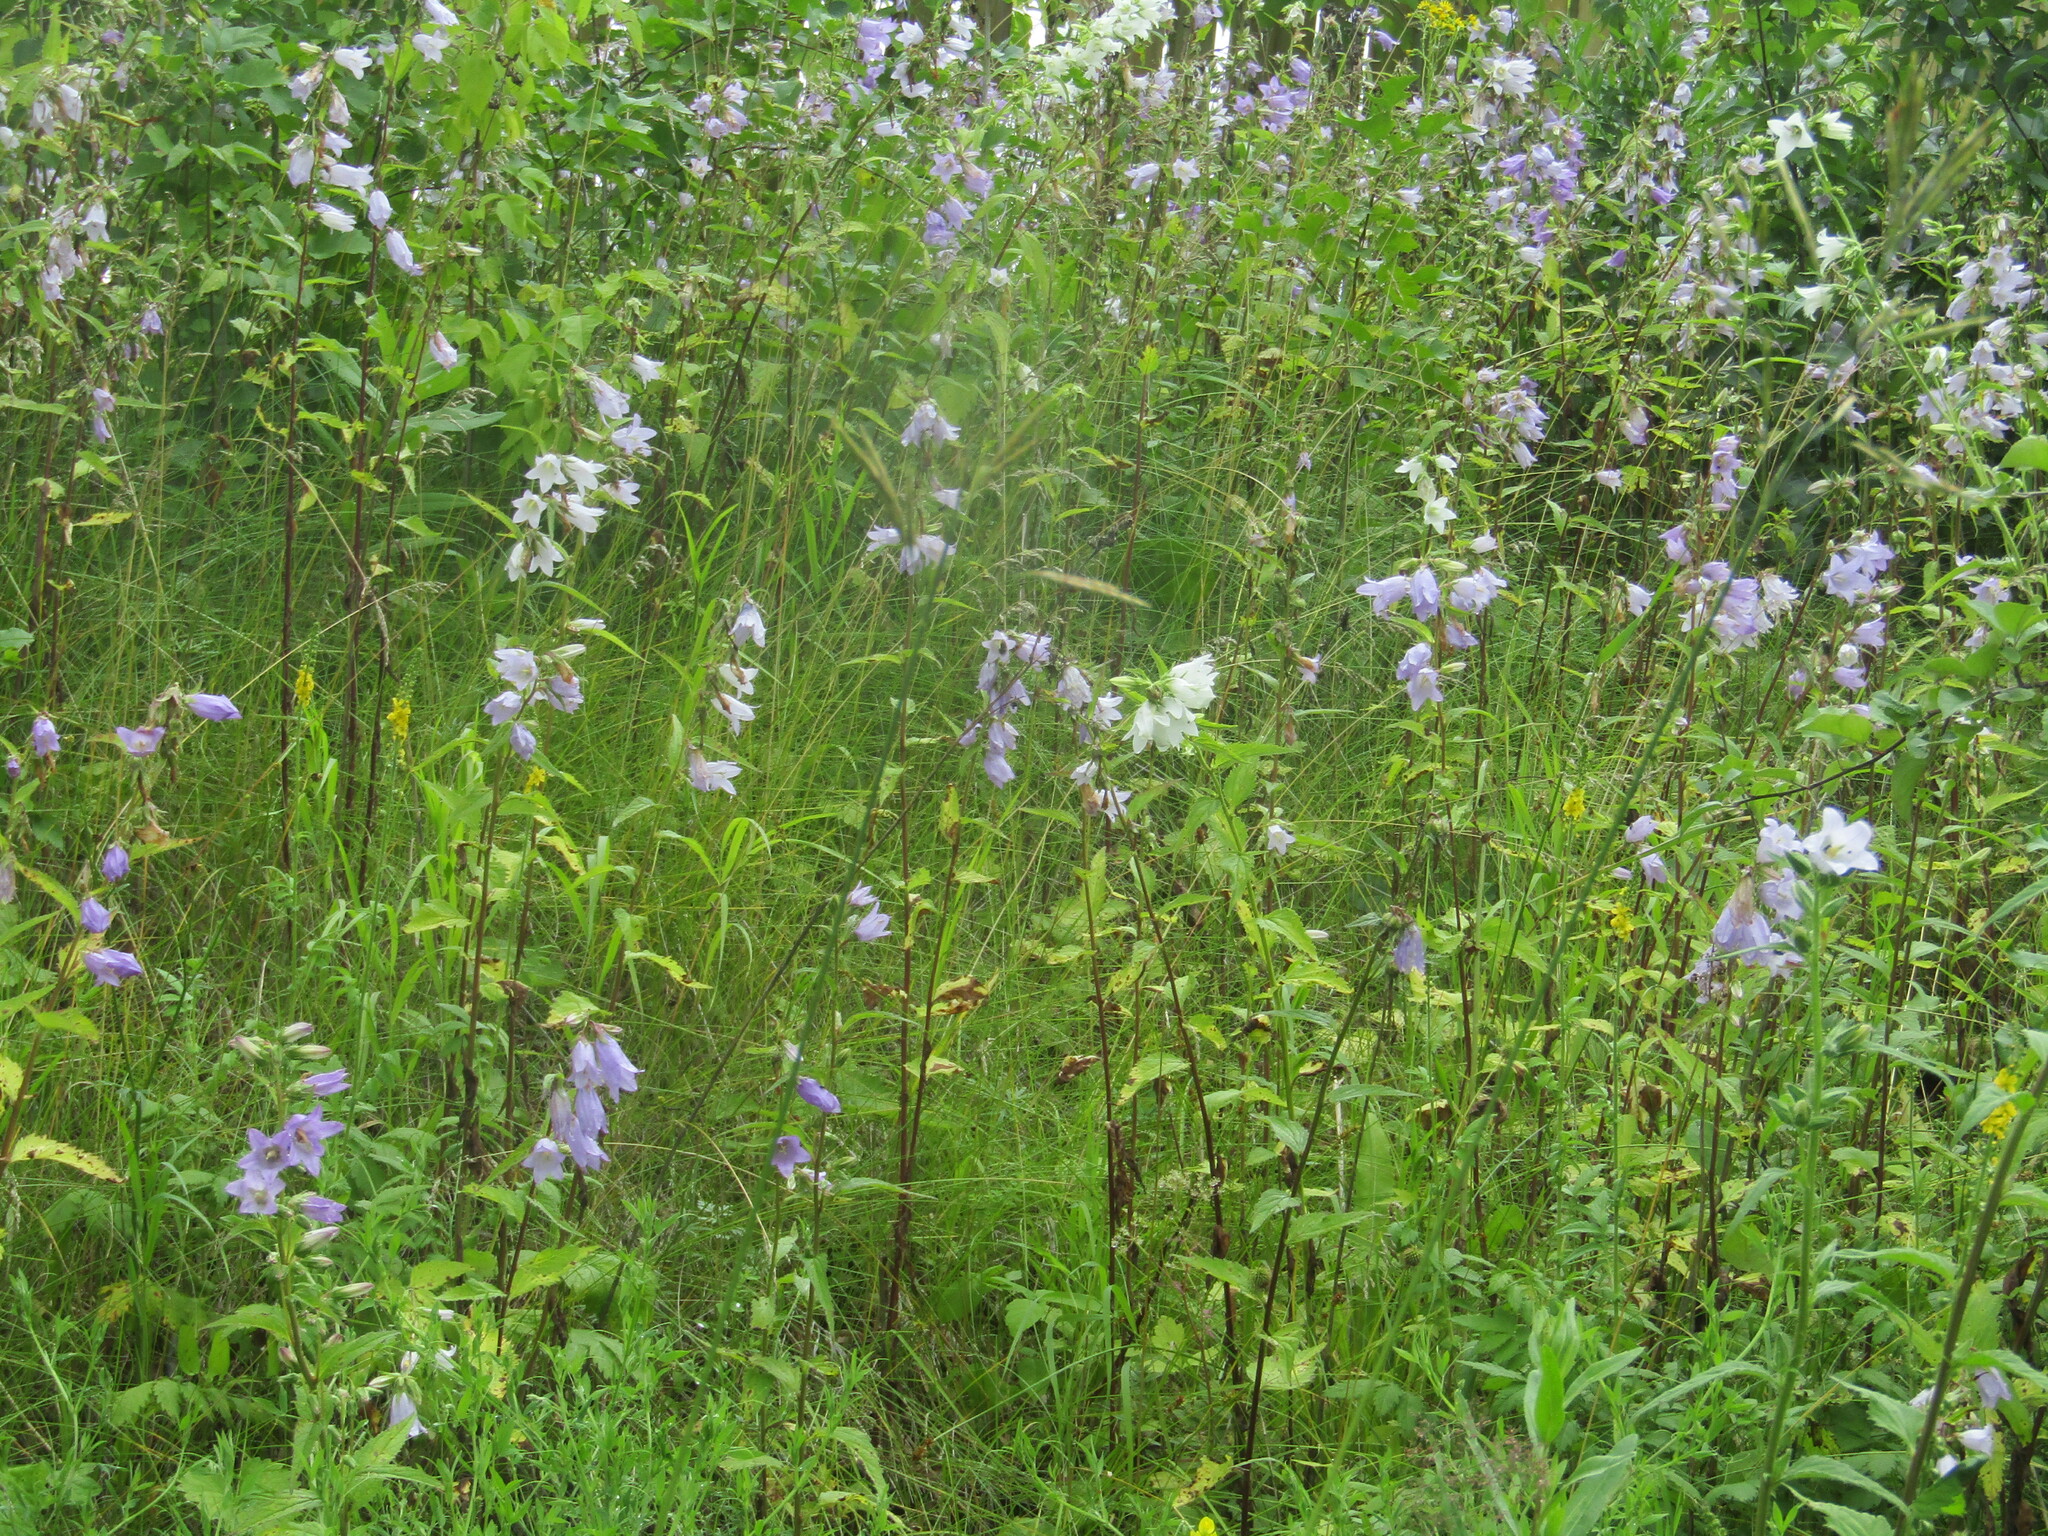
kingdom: Plantae
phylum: Tracheophyta
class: Magnoliopsida
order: Asterales
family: Campanulaceae
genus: Campanula
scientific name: Campanula trachelium
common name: Nettle-leaved bellflower
